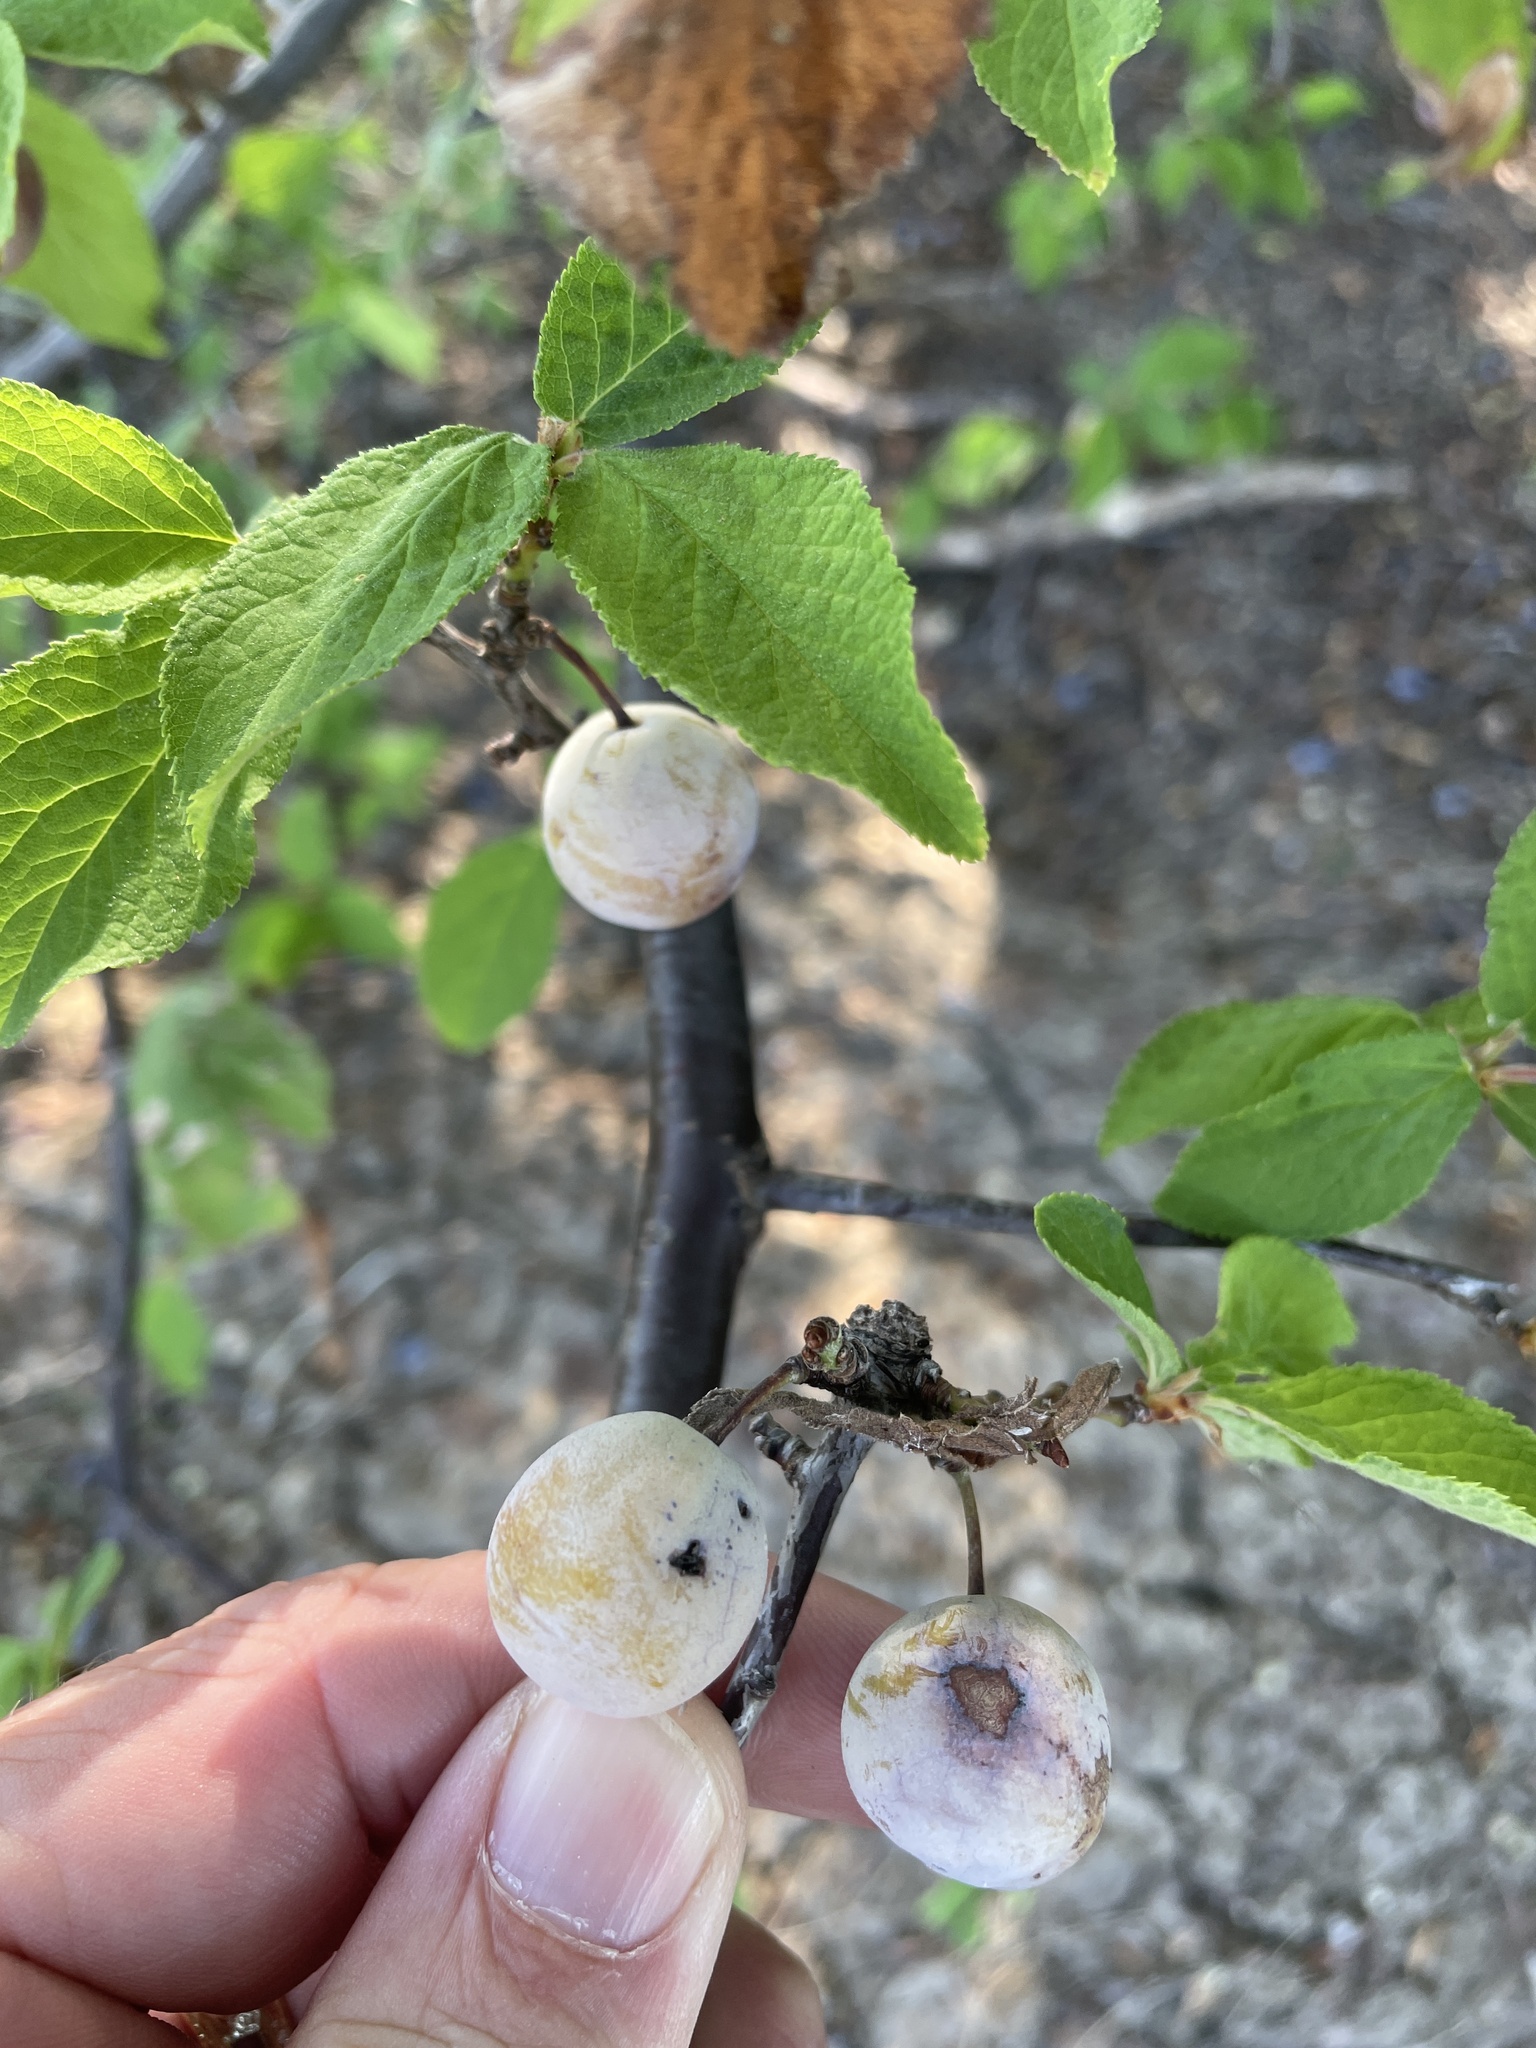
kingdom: Plantae
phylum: Tracheophyta
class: Magnoliopsida
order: Rosales
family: Rosaceae
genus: Prunus
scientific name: Prunus mexicana
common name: Mexican plum
